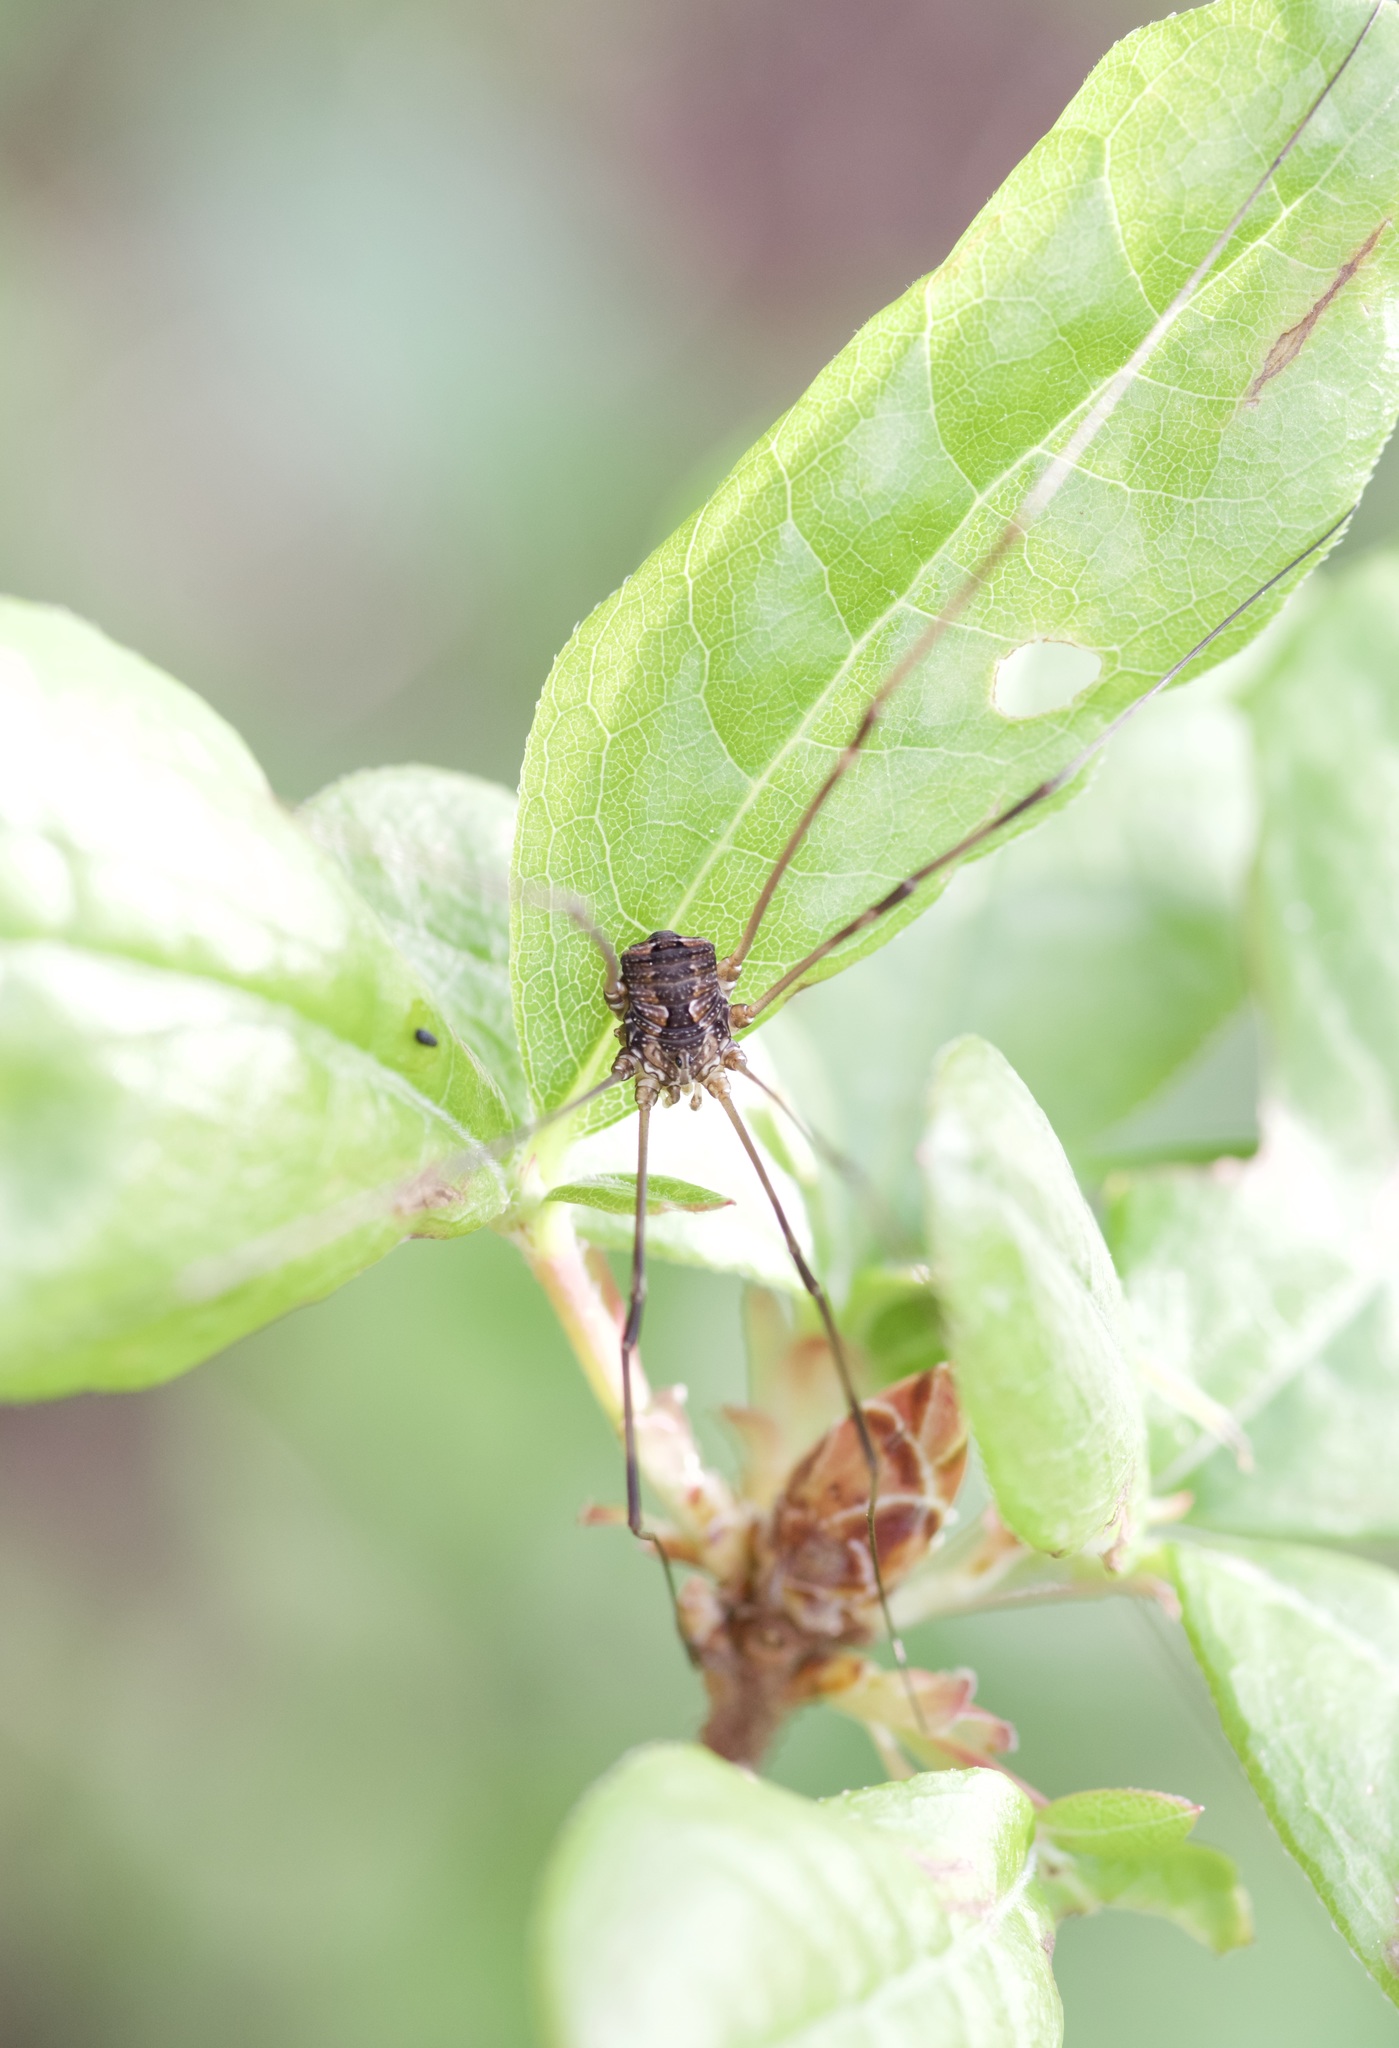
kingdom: Animalia
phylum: Arthropoda
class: Arachnida
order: Opiliones
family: Sclerosomatidae
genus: Leiobunum
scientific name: Leiobunum flavum
